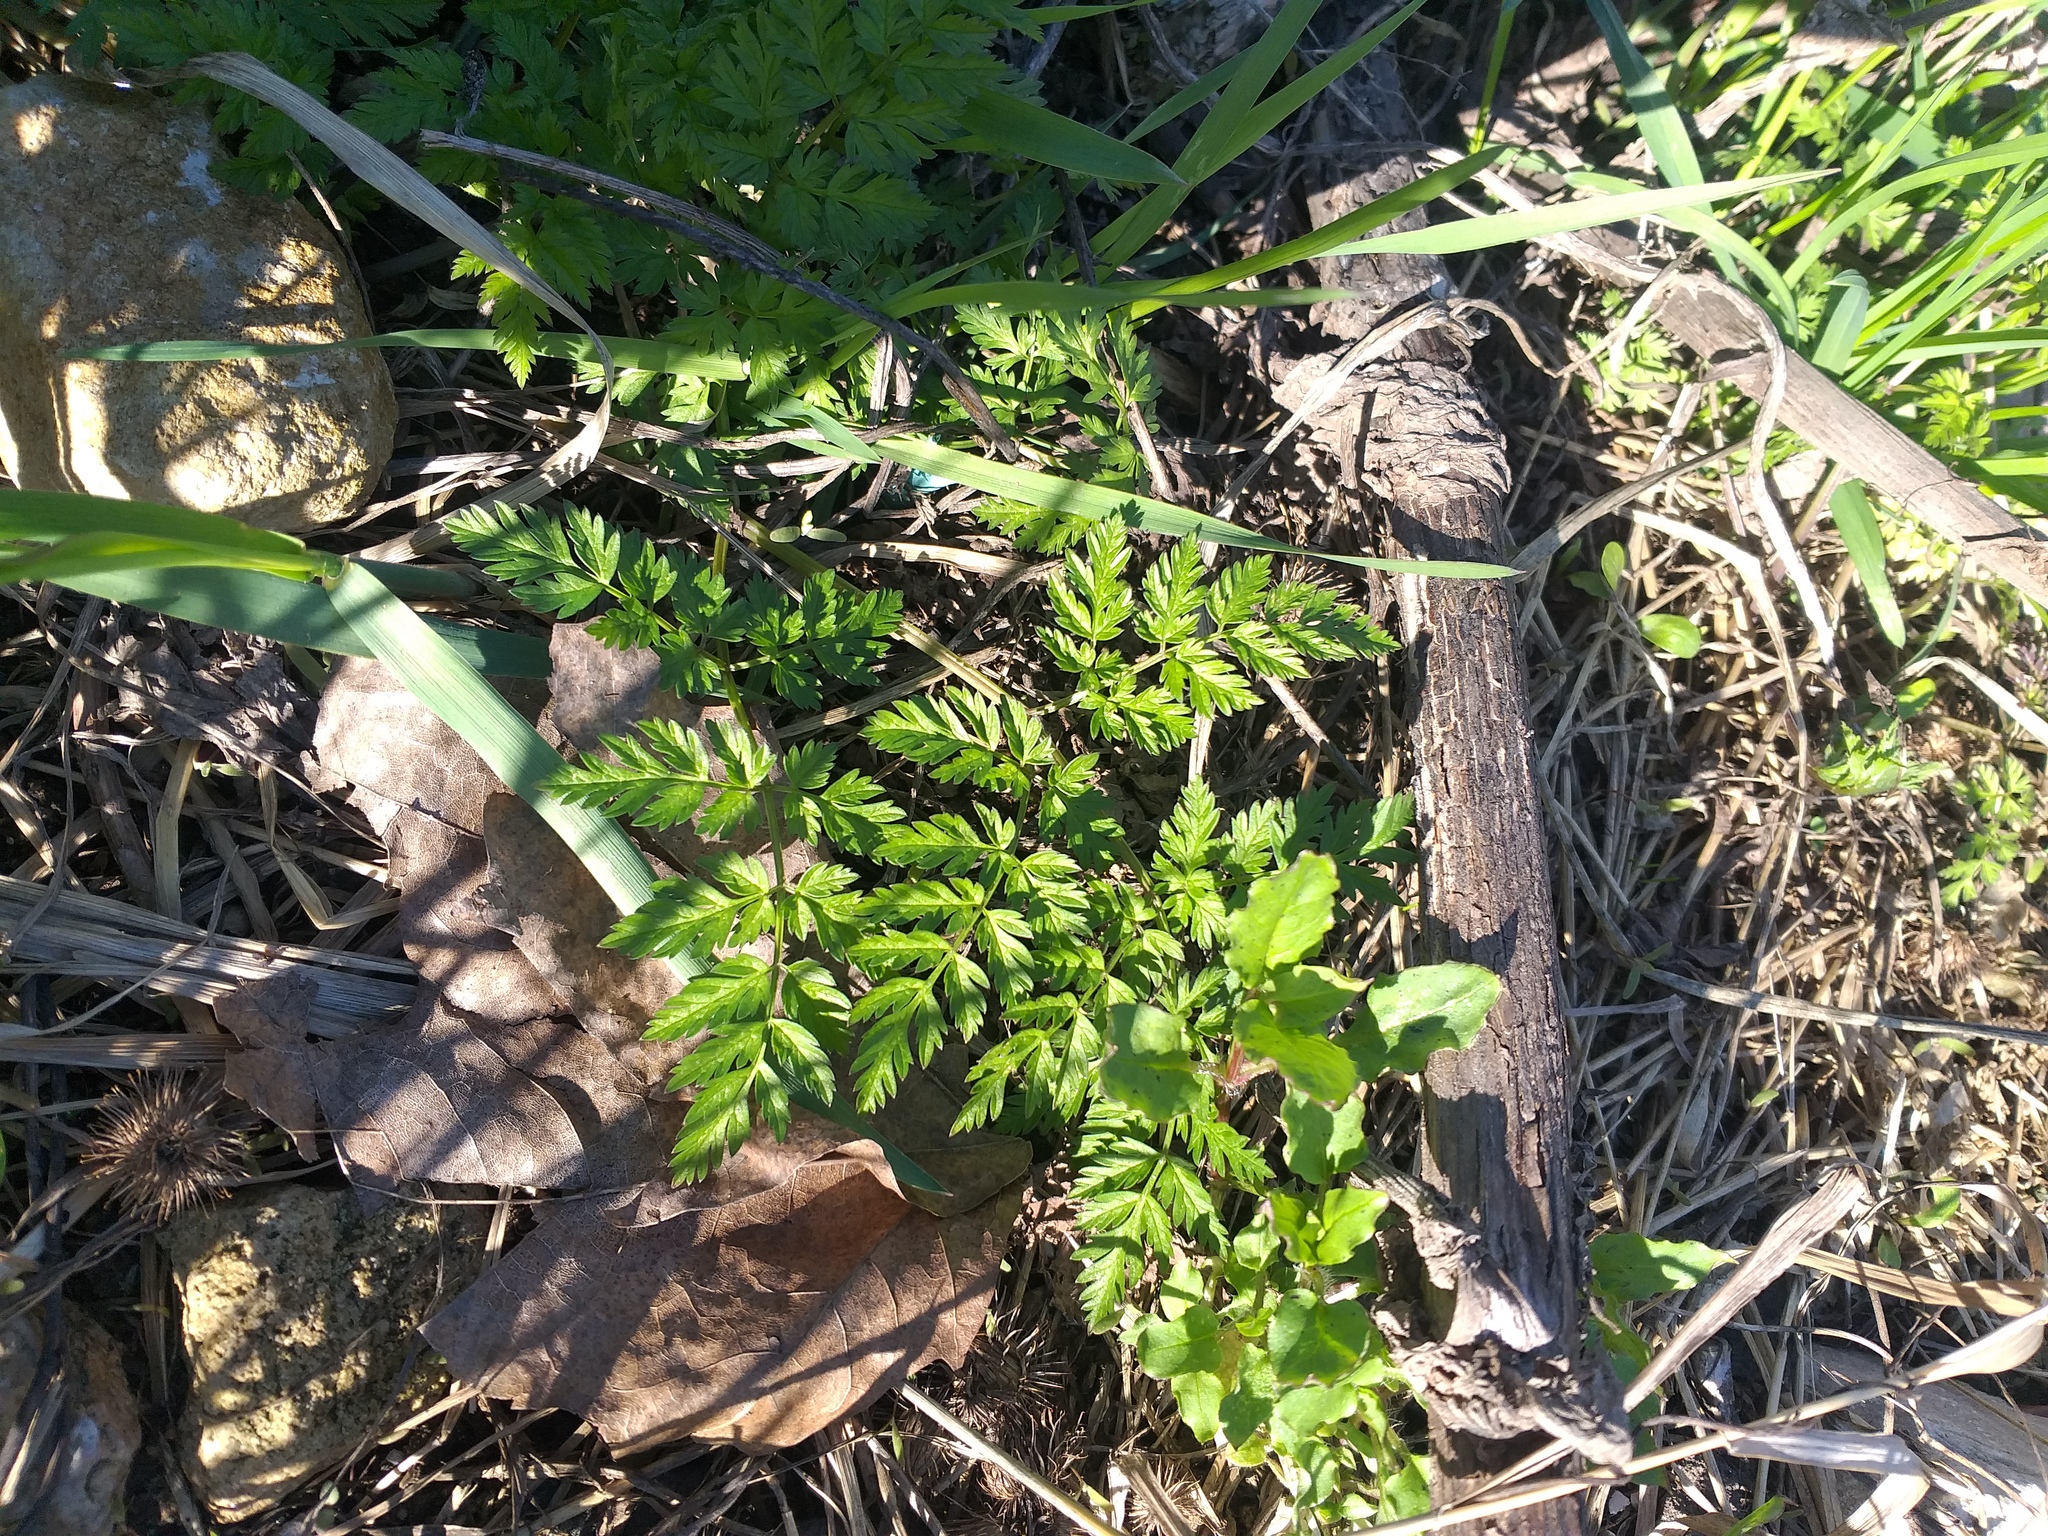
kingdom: Plantae
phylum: Tracheophyta
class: Magnoliopsida
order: Apiales
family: Apiaceae
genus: Anthriscus
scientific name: Anthriscus sylvestris
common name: Cow parsley
